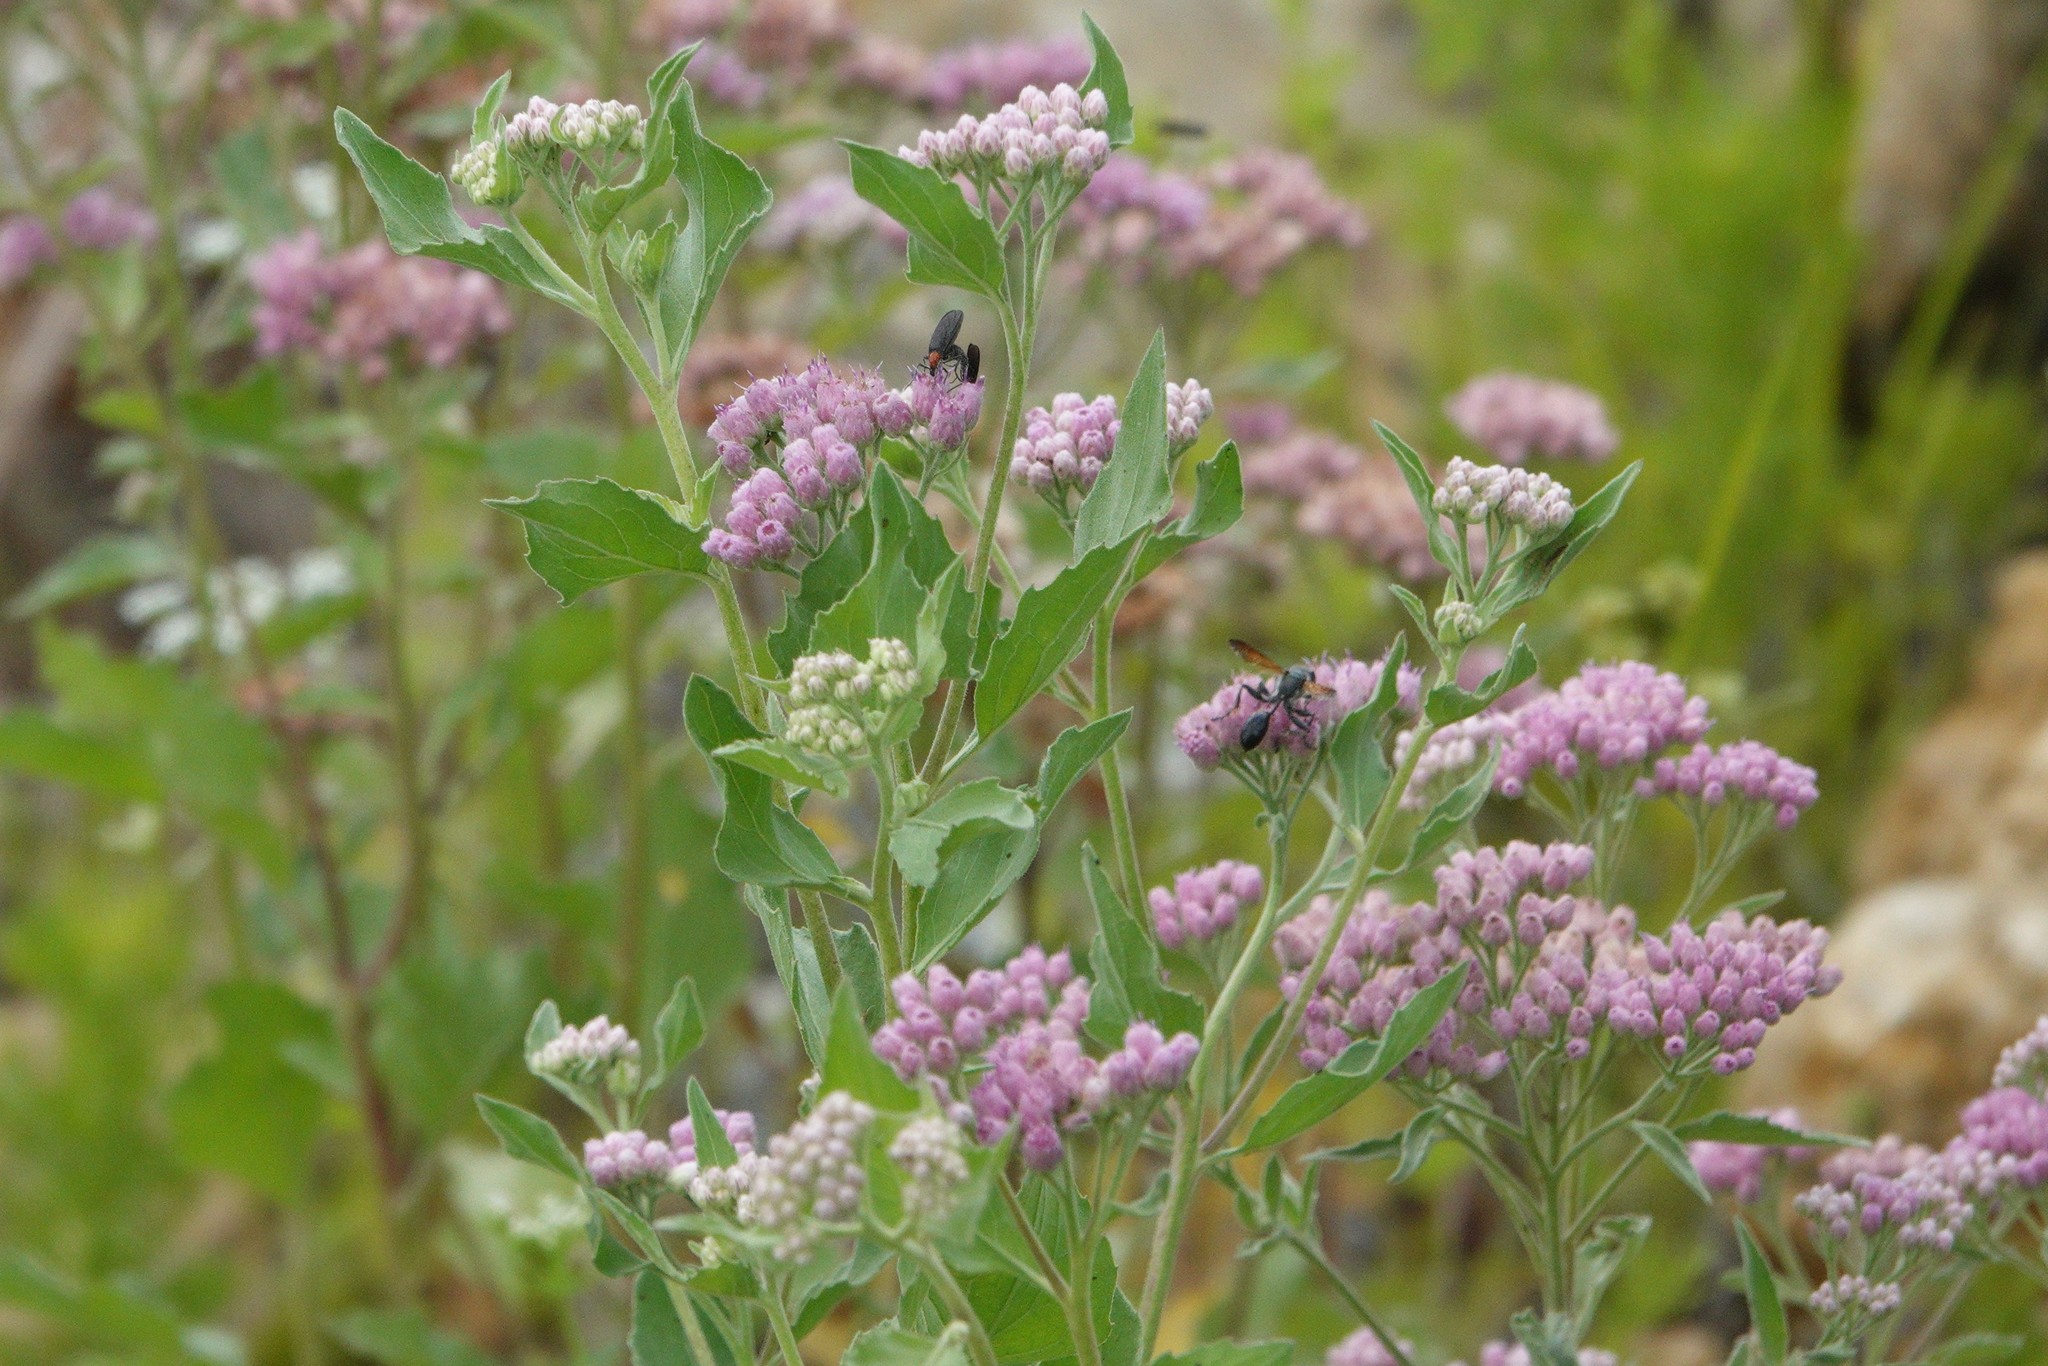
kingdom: Plantae
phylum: Tracheophyta
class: Magnoliopsida
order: Asterales
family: Asteraceae
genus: Pluchea
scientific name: Pluchea odorata
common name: Saltmarsh fleabane
